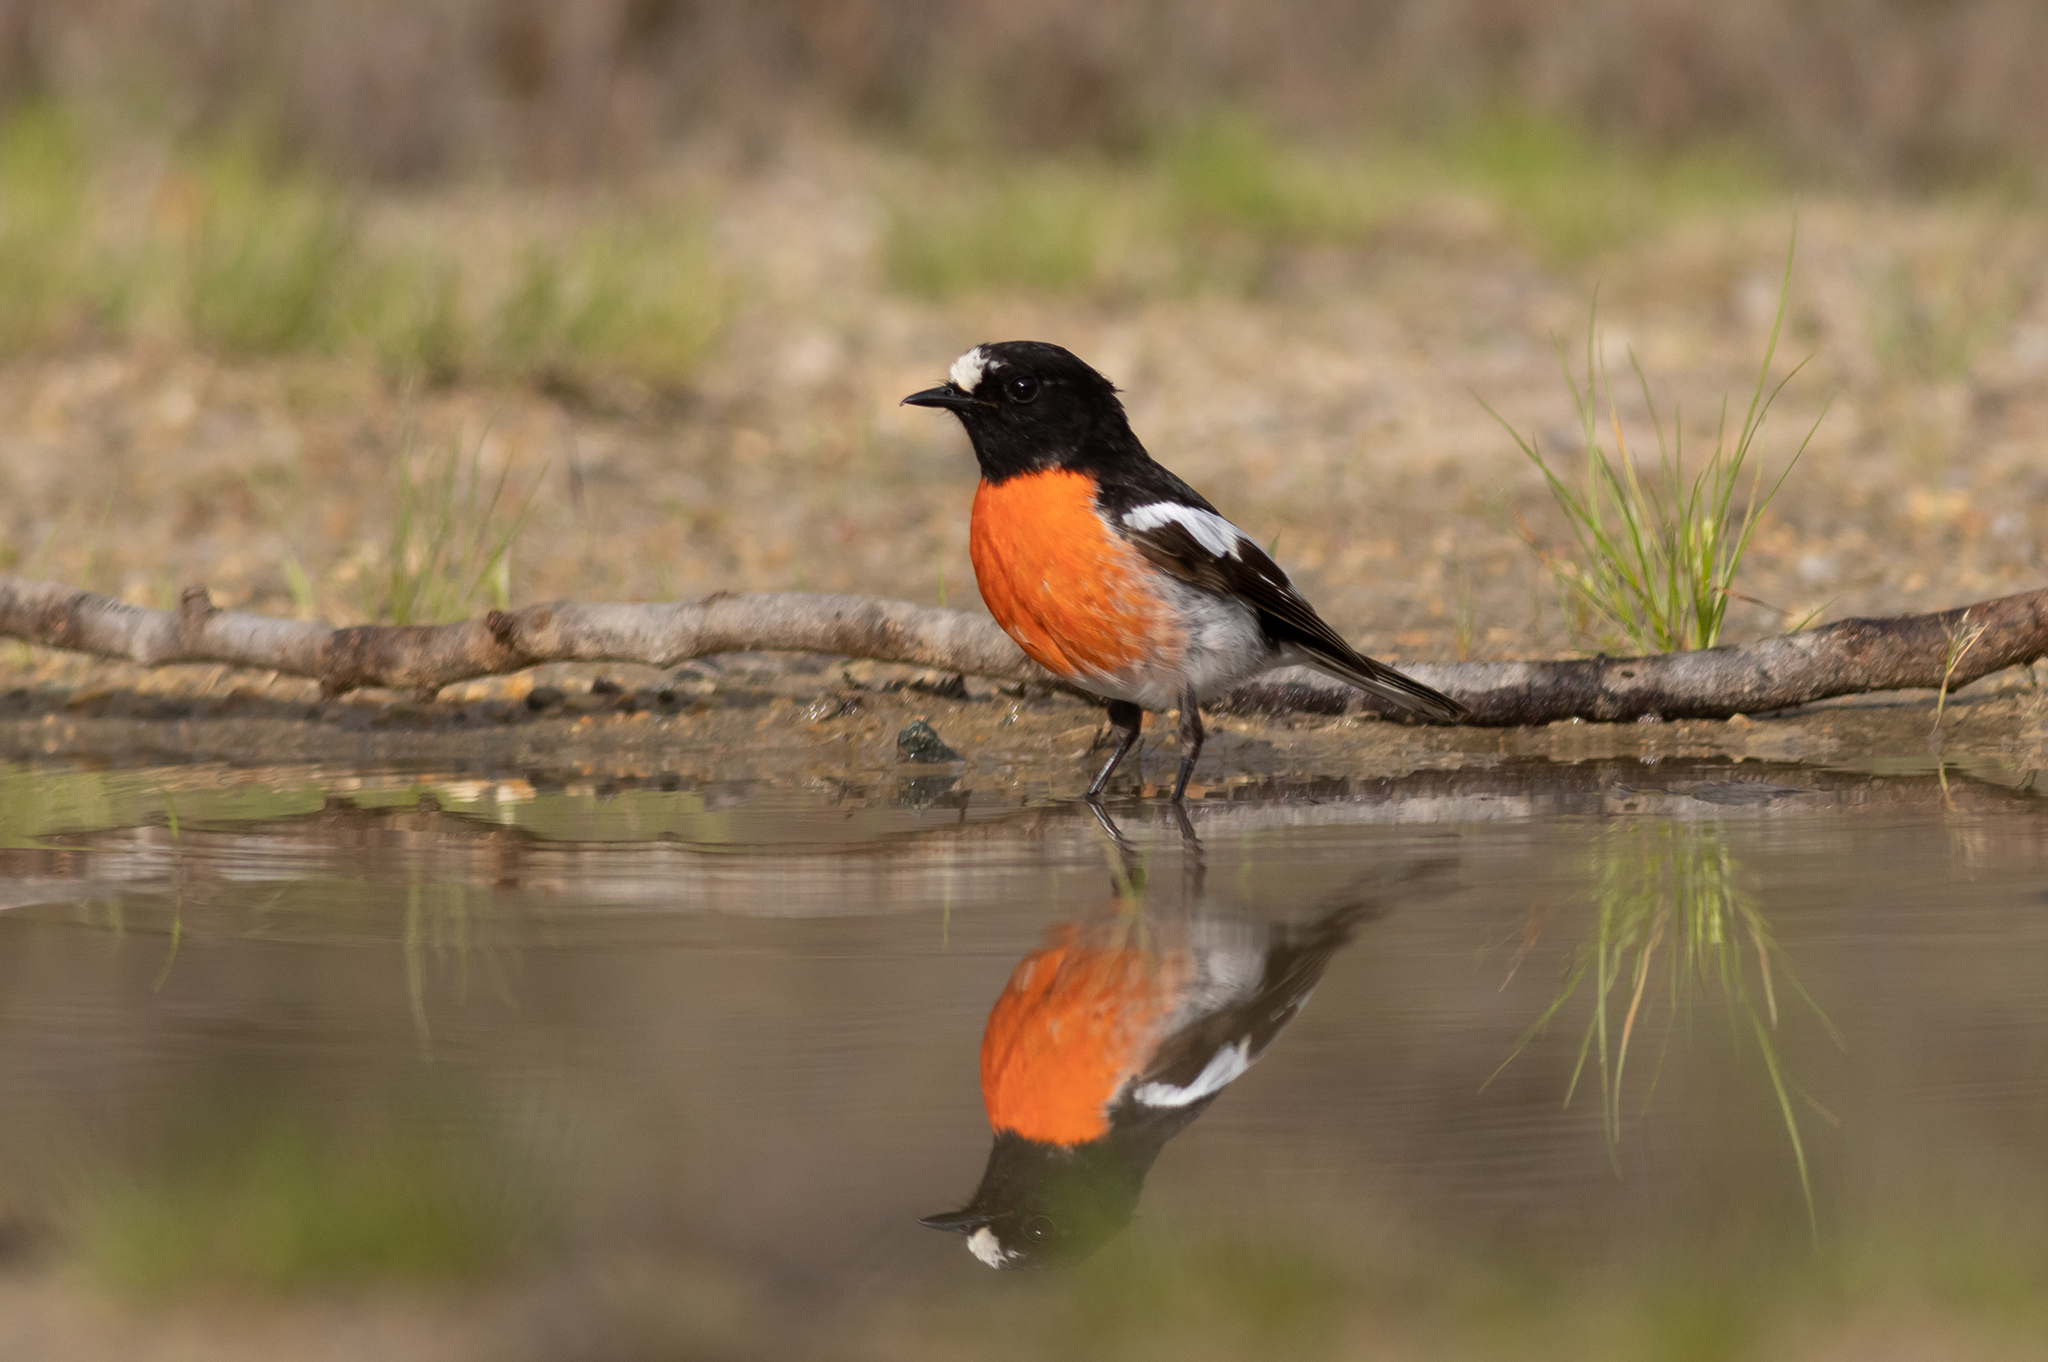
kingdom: Animalia
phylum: Chordata
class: Aves
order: Passeriformes
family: Petroicidae
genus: Petroica
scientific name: Petroica boodang
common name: Scarlet robin
